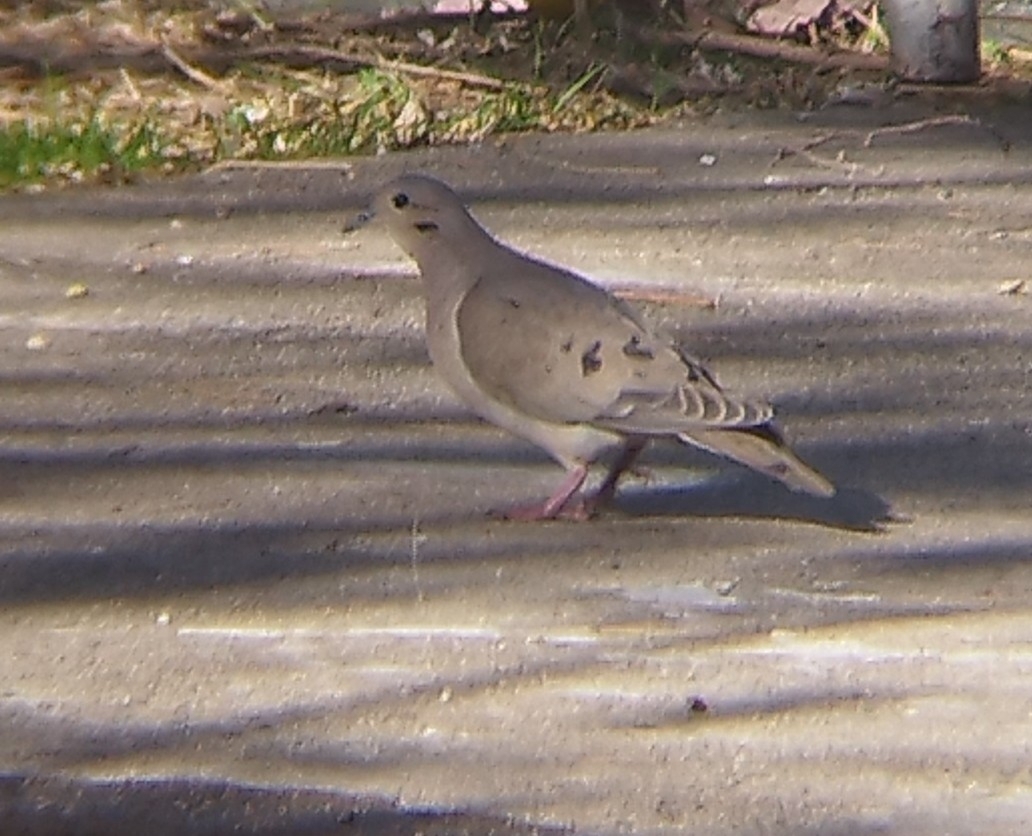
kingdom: Animalia
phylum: Chordata
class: Aves
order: Columbiformes
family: Columbidae
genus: Zenaida
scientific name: Zenaida auriculata
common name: Eared dove
